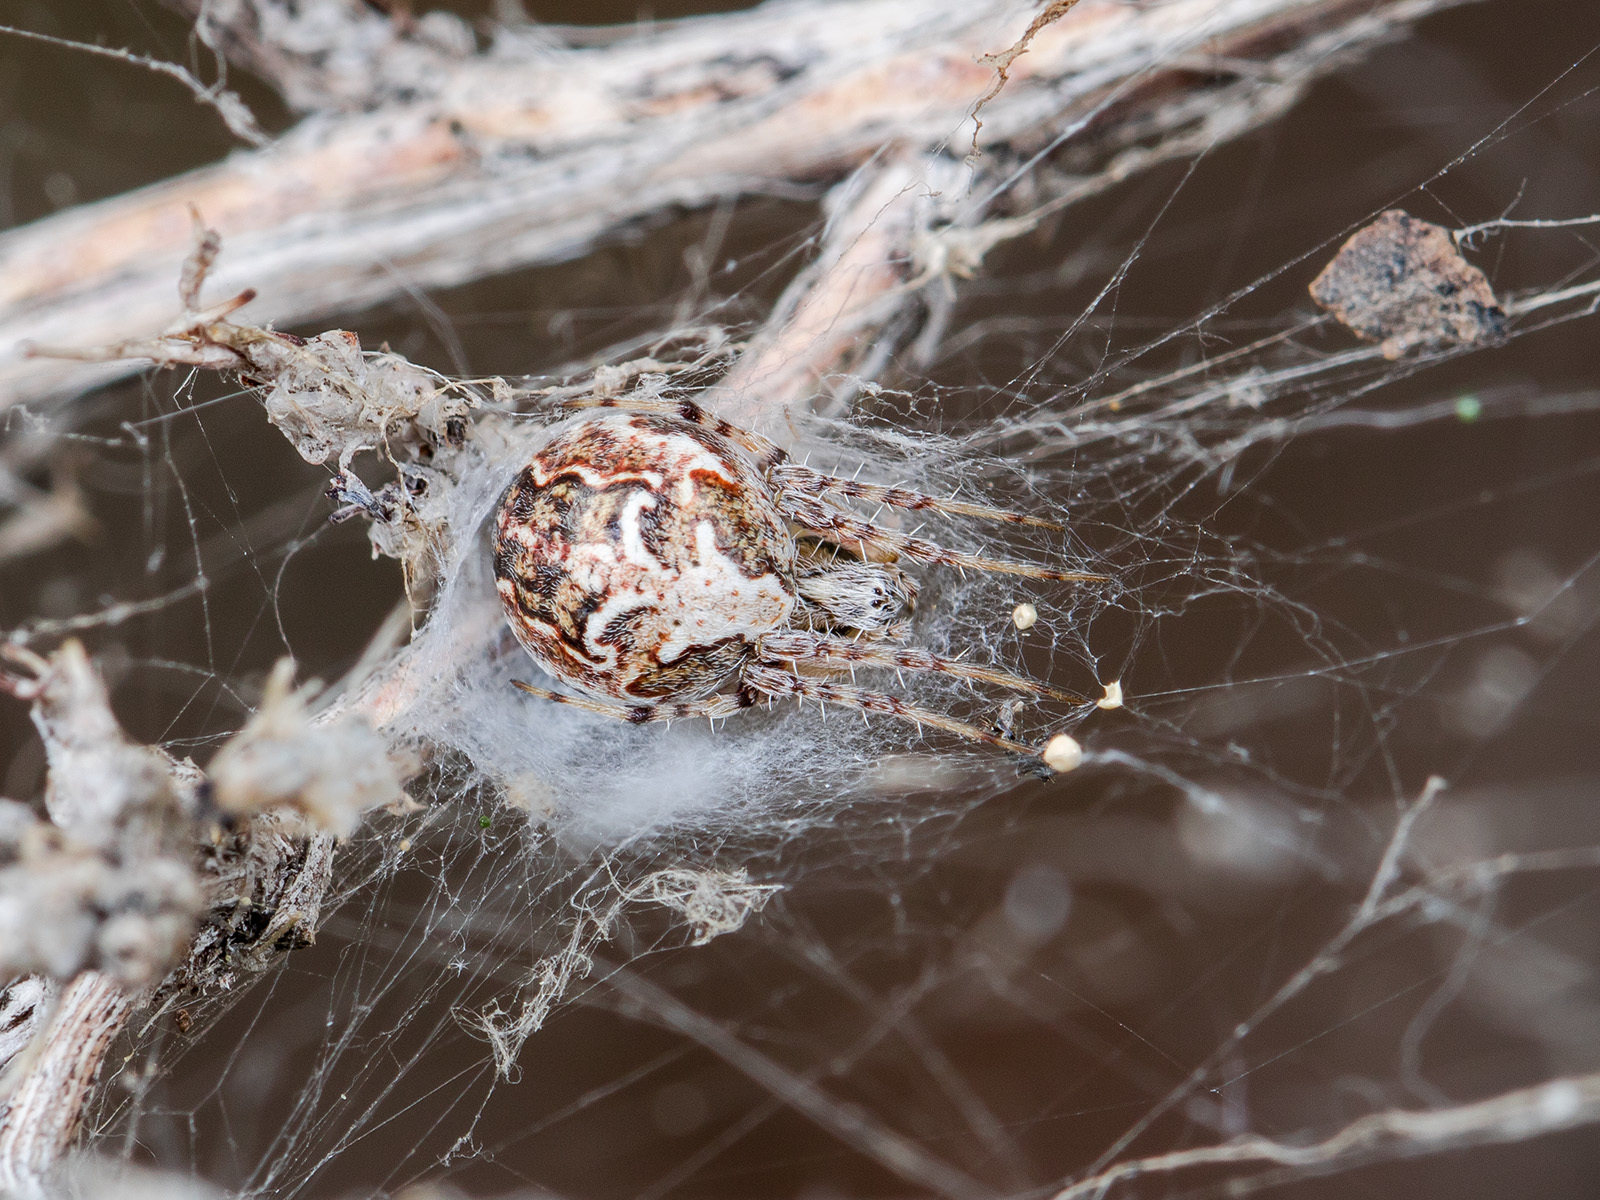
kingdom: Animalia
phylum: Arthropoda
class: Arachnida
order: Araneae
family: Araneidae
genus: Araneus
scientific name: Araneus pallasi
